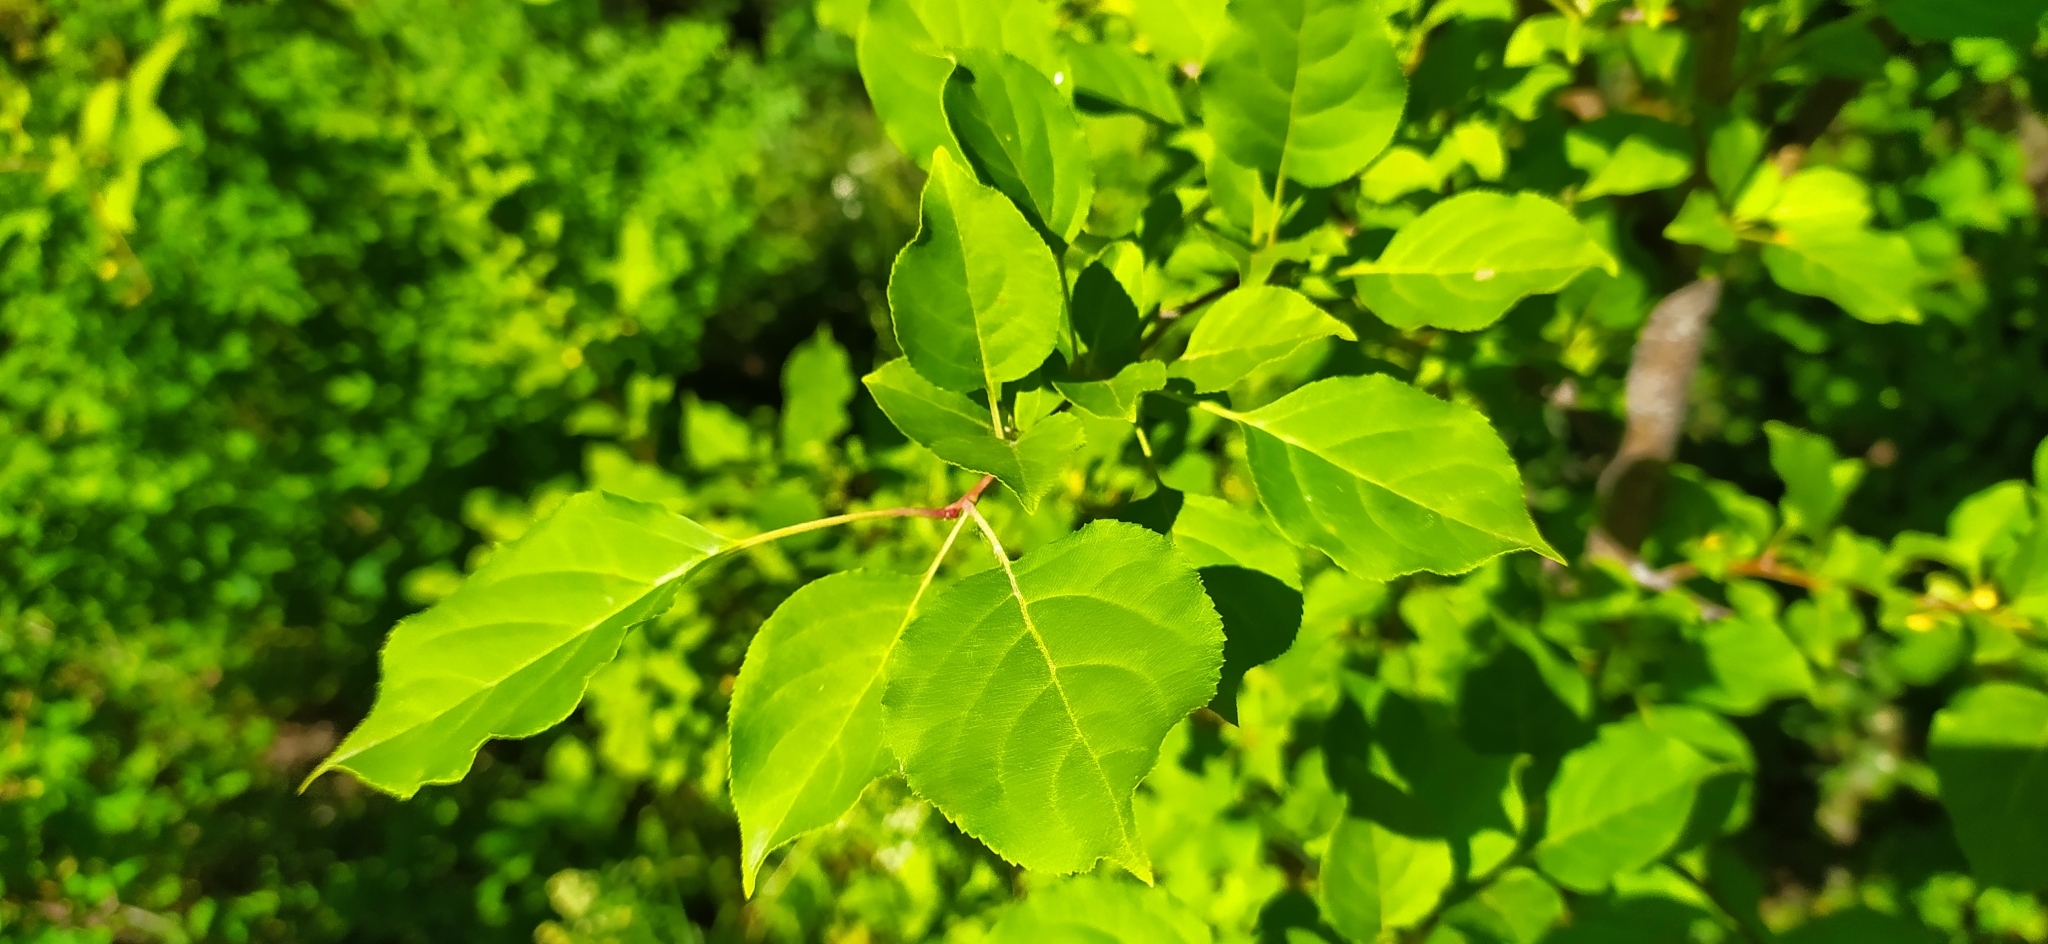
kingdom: Plantae
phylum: Tracheophyta
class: Magnoliopsida
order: Rosales
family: Rosaceae
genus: Malus
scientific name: Malus baccata
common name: Siberian crab
